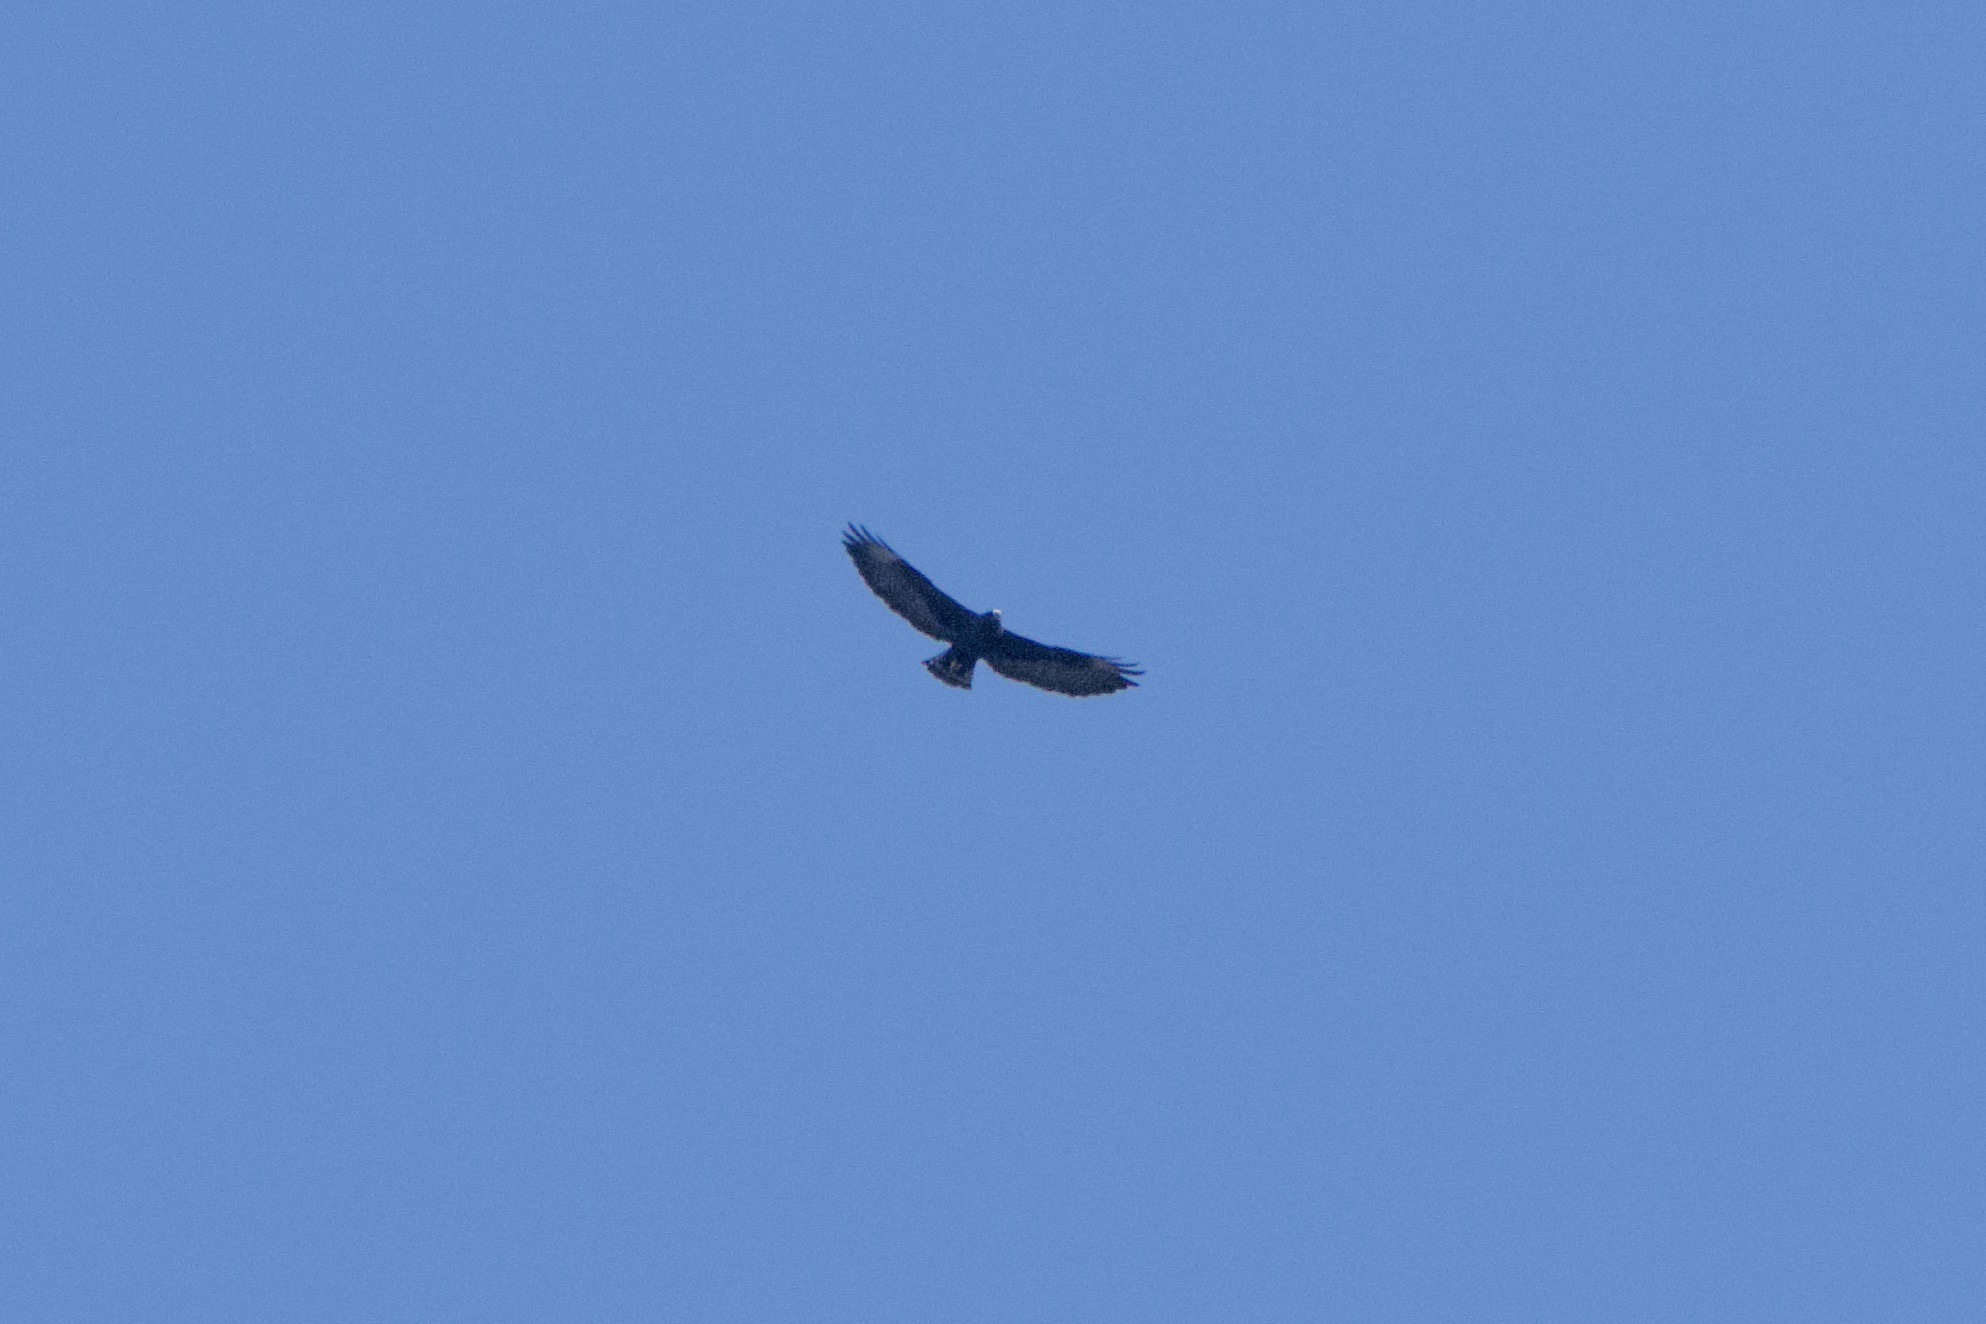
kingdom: Animalia
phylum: Chordata
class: Aves
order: Accipitriformes
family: Accipitridae
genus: Buteo
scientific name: Buteo brachyurus
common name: Short-tailed hawk
